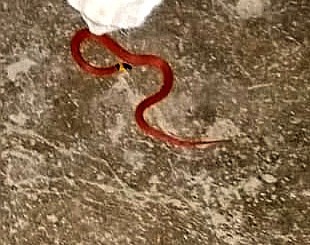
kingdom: Animalia
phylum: Chordata
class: Squamata
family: Colubridae
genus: Ninia
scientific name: Ninia sebae
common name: Redback coffee snake
